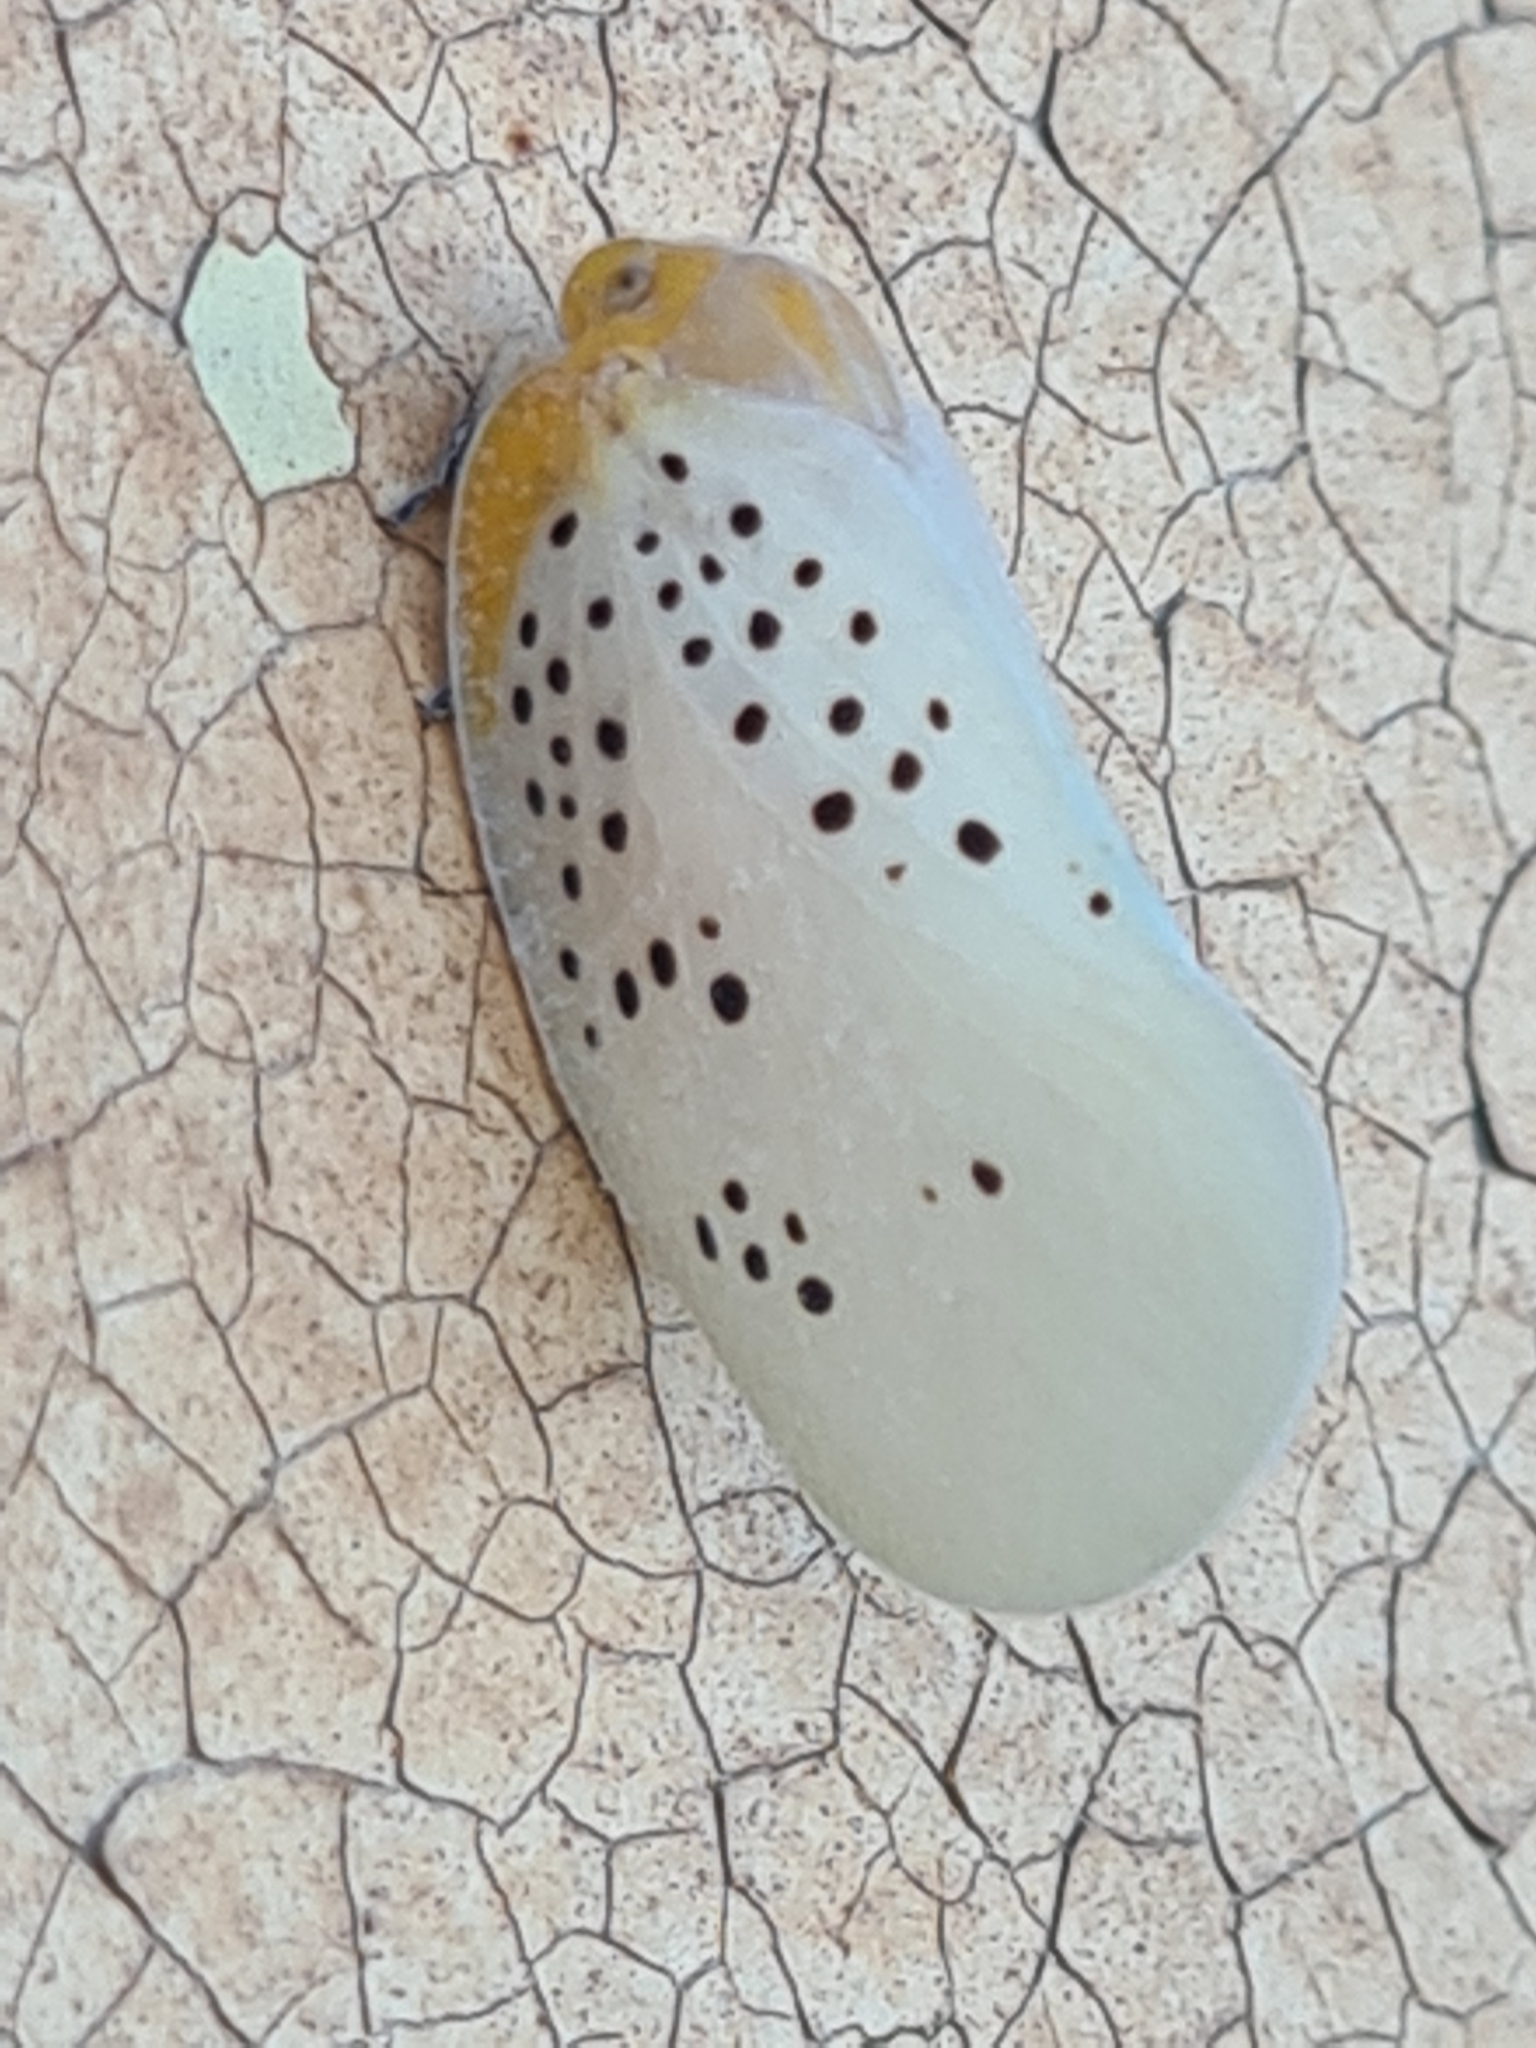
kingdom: Animalia
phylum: Arthropoda
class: Insecta
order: Hemiptera
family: Flatidae
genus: Poekilloptera
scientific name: Poekilloptera phalaenoides
